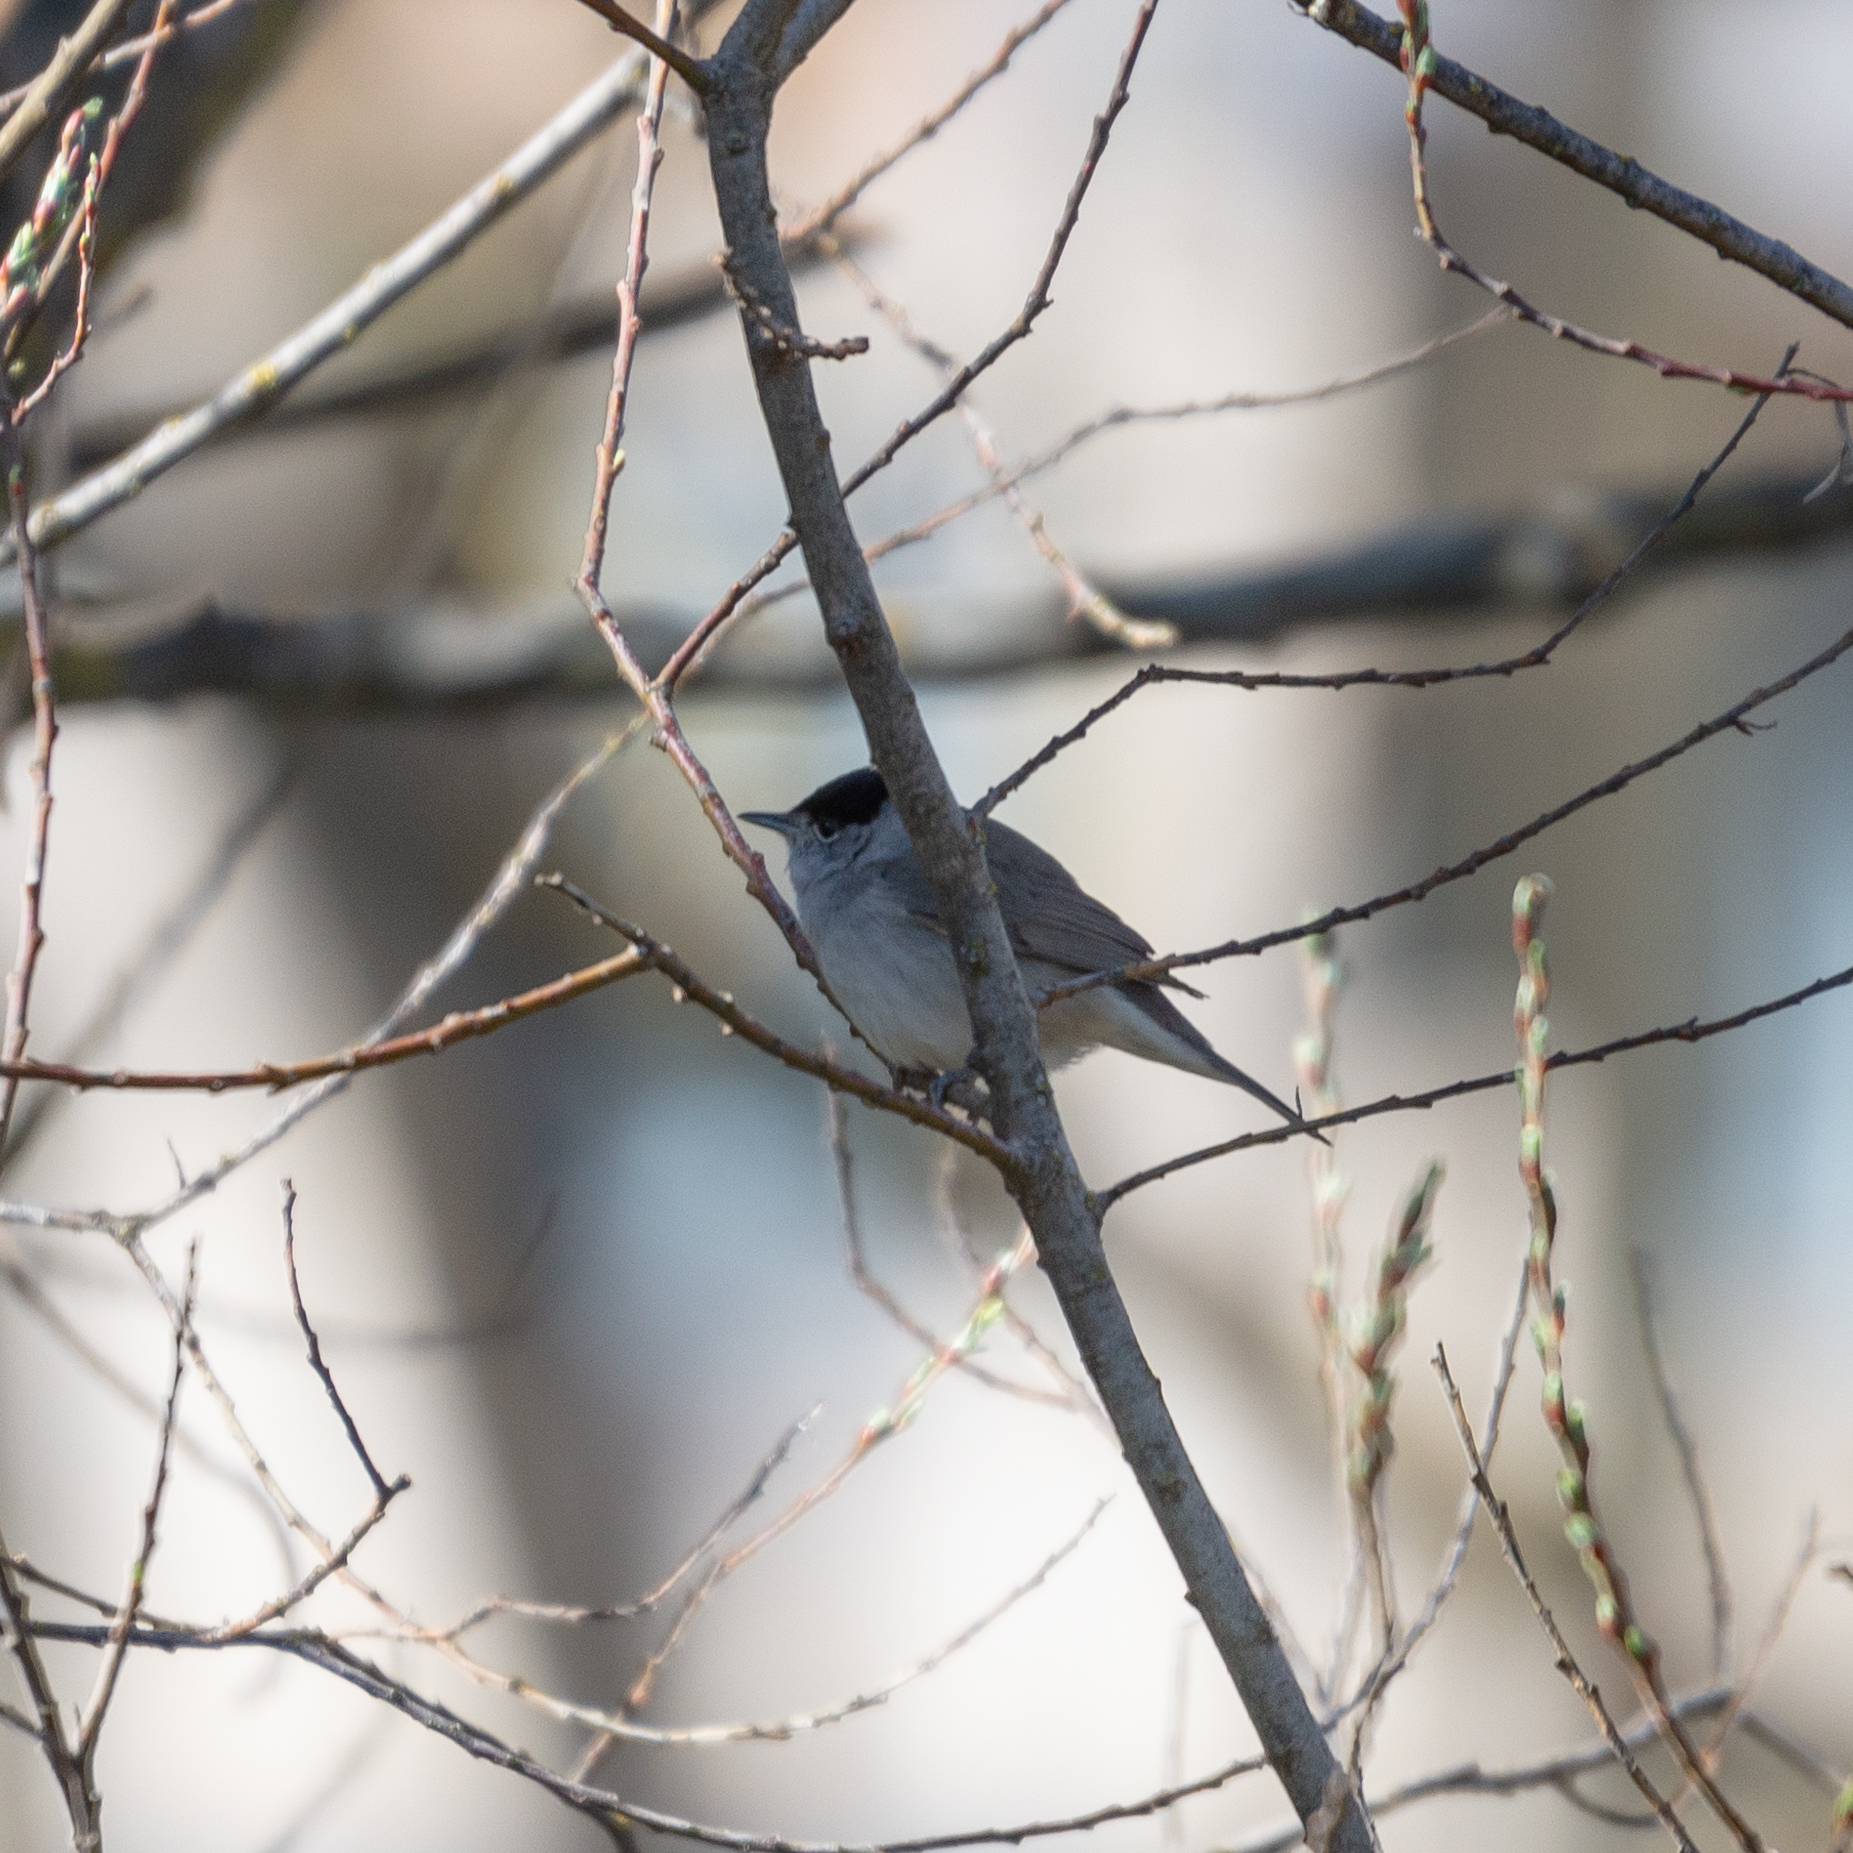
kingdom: Animalia
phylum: Chordata
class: Aves
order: Passeriformes
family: Sylviidae
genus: Sylvia
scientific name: Sylvia atricapilla
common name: Eurasian blackcap
